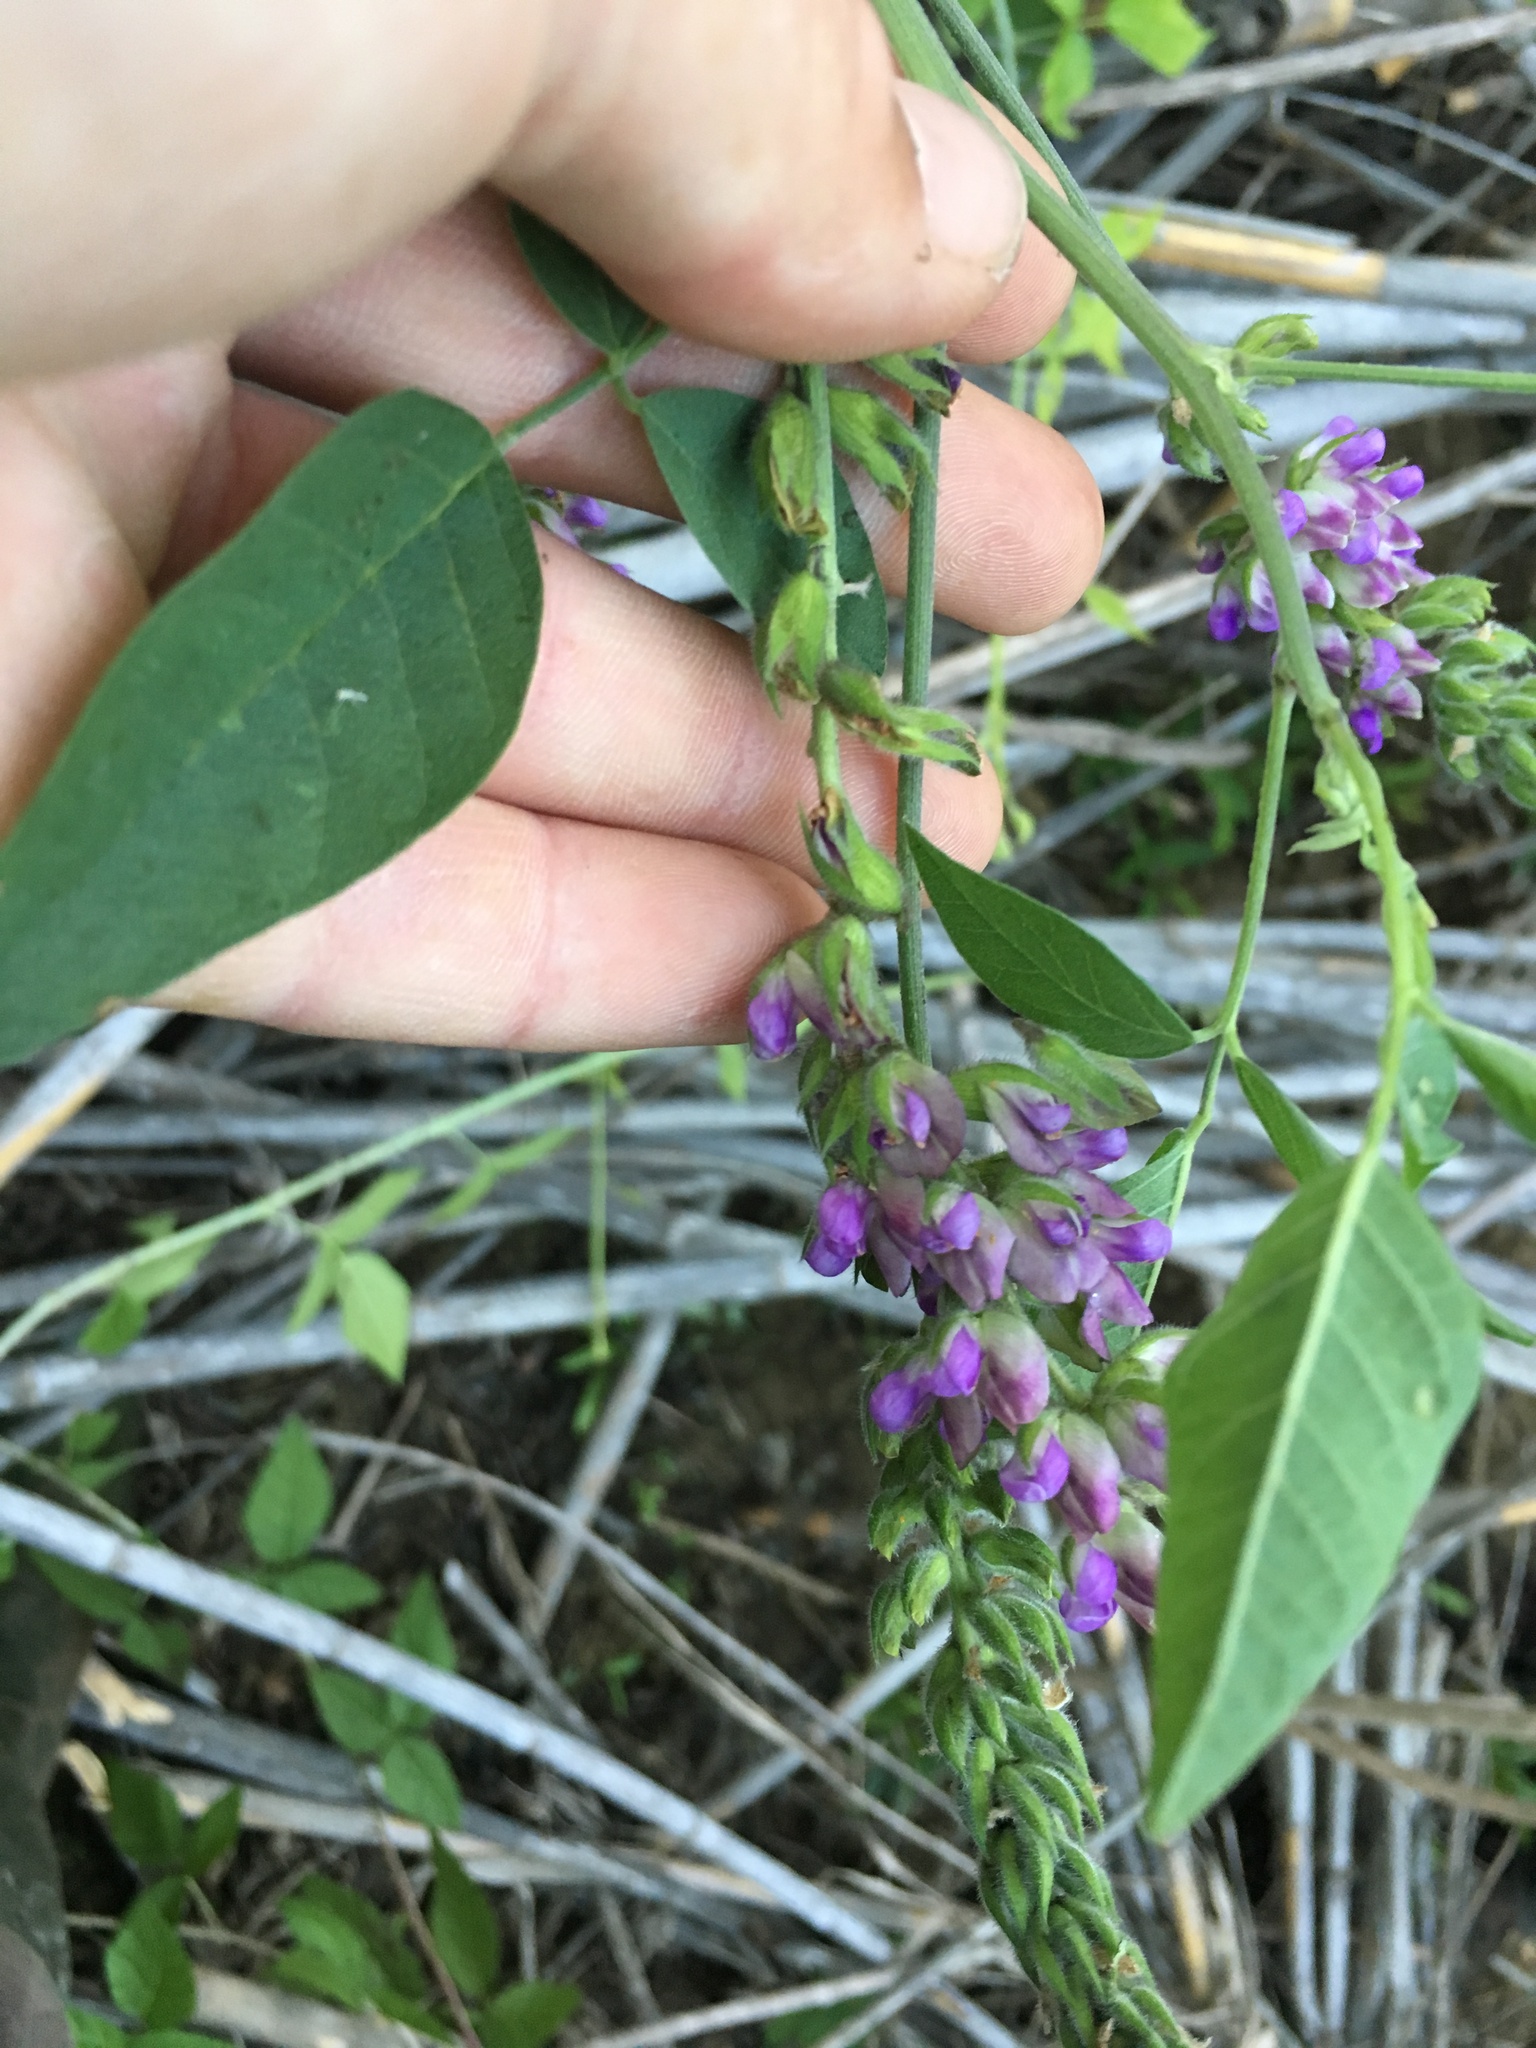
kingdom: Plantae
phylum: Tracheophyta
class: Magnoliopsida
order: Fabales
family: Fabaceae
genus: Hoita
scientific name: Hoita macrostachya
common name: Leatherroot
